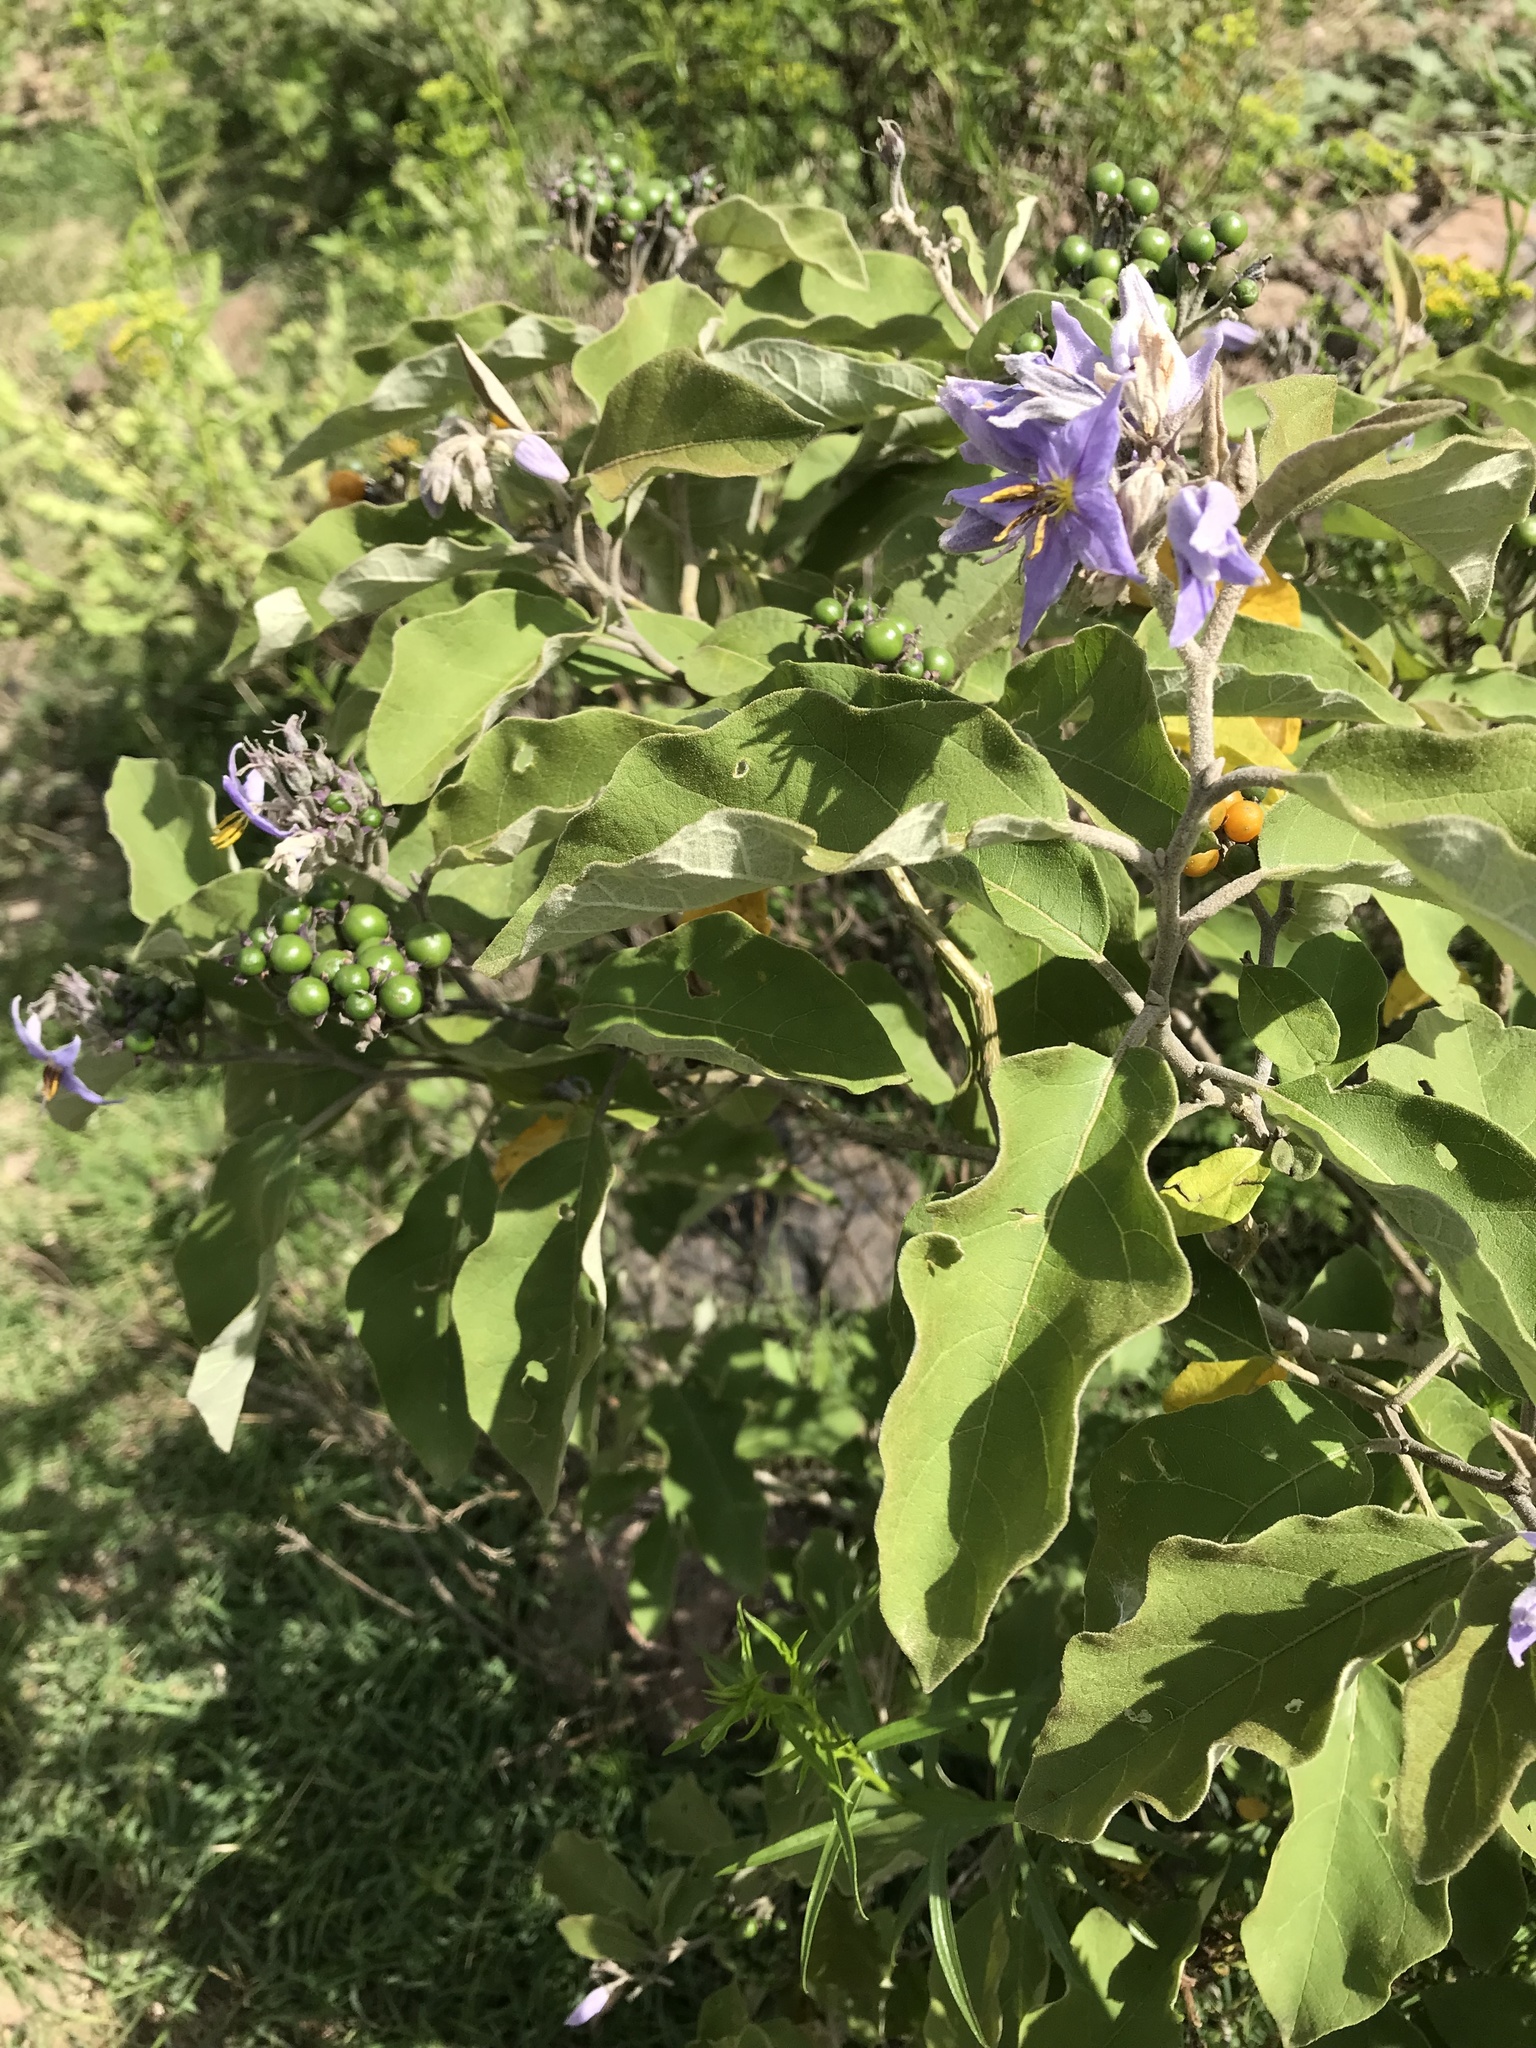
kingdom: Plantae
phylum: Tracheophyta
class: Magnoliopsida
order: Solanales
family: Solanaceae
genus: Solanum
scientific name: Solanum lanceolatum
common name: Orangeberry nightshade
